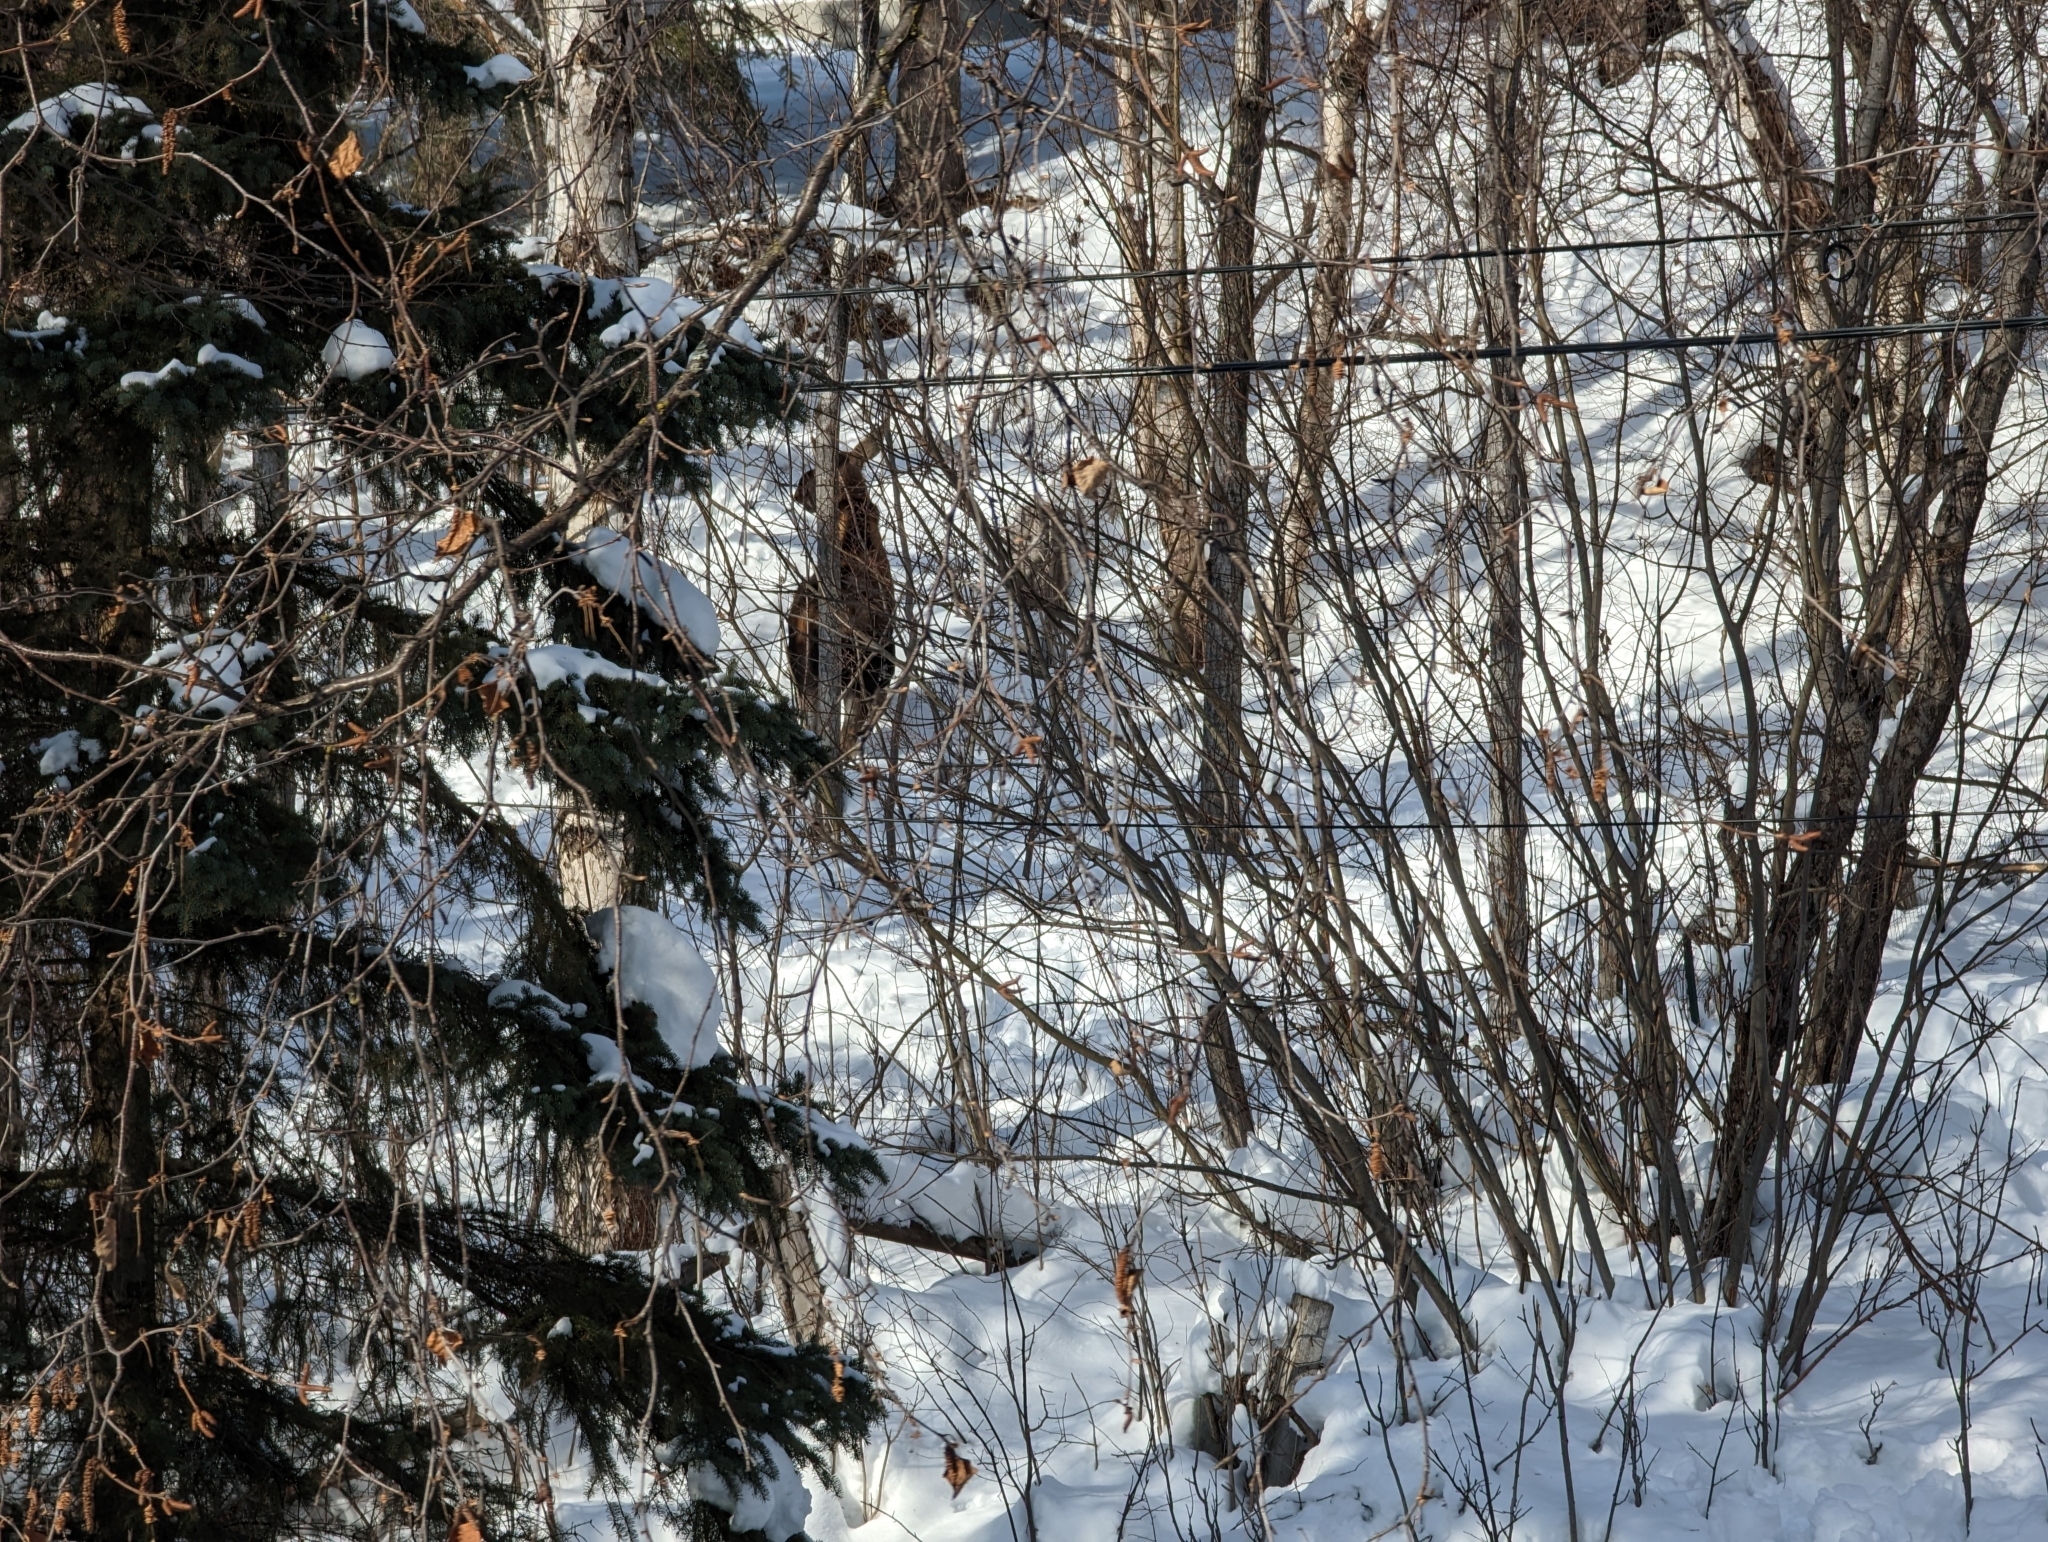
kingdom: Animalia
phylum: Chordata
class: Mammalia
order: Artiodactyla
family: Cervidae
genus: Alces
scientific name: Alces alces
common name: Moose
